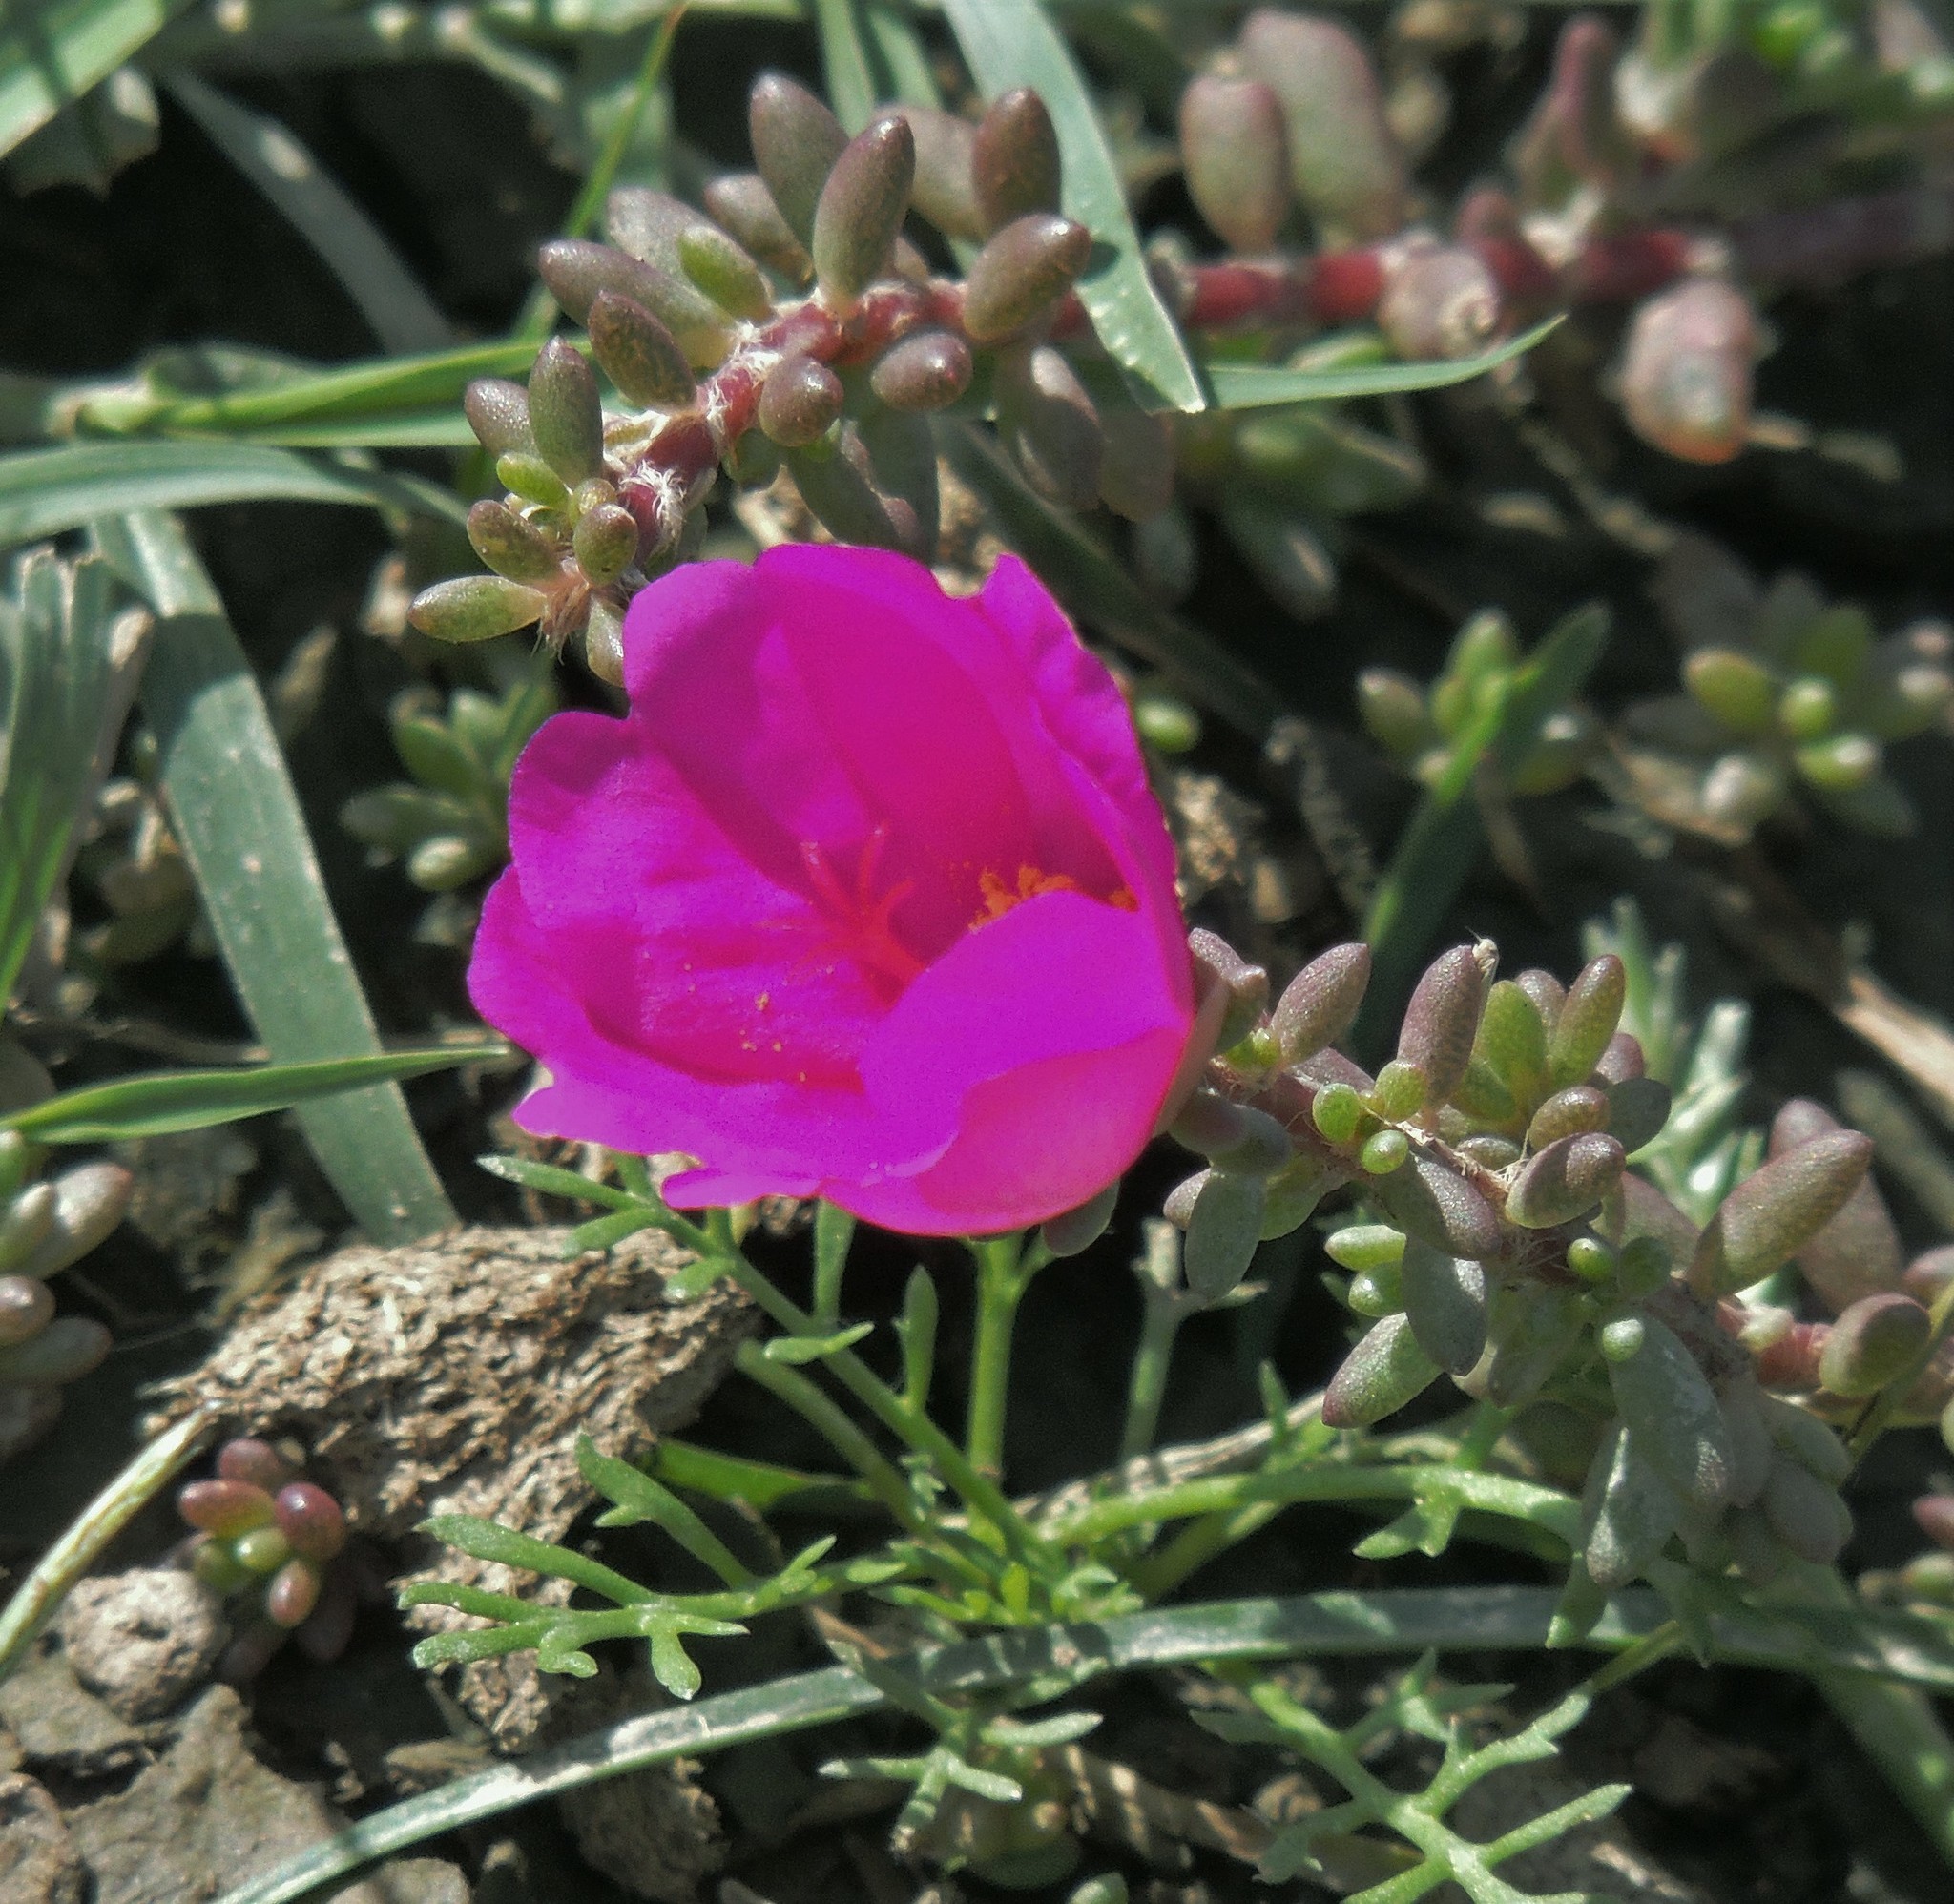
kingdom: Plantae
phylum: Tracheophyta
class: Magnoliopsida
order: Caryophyllales
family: Portulacaceae
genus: Portulaca
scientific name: Portulaca gilliesii
